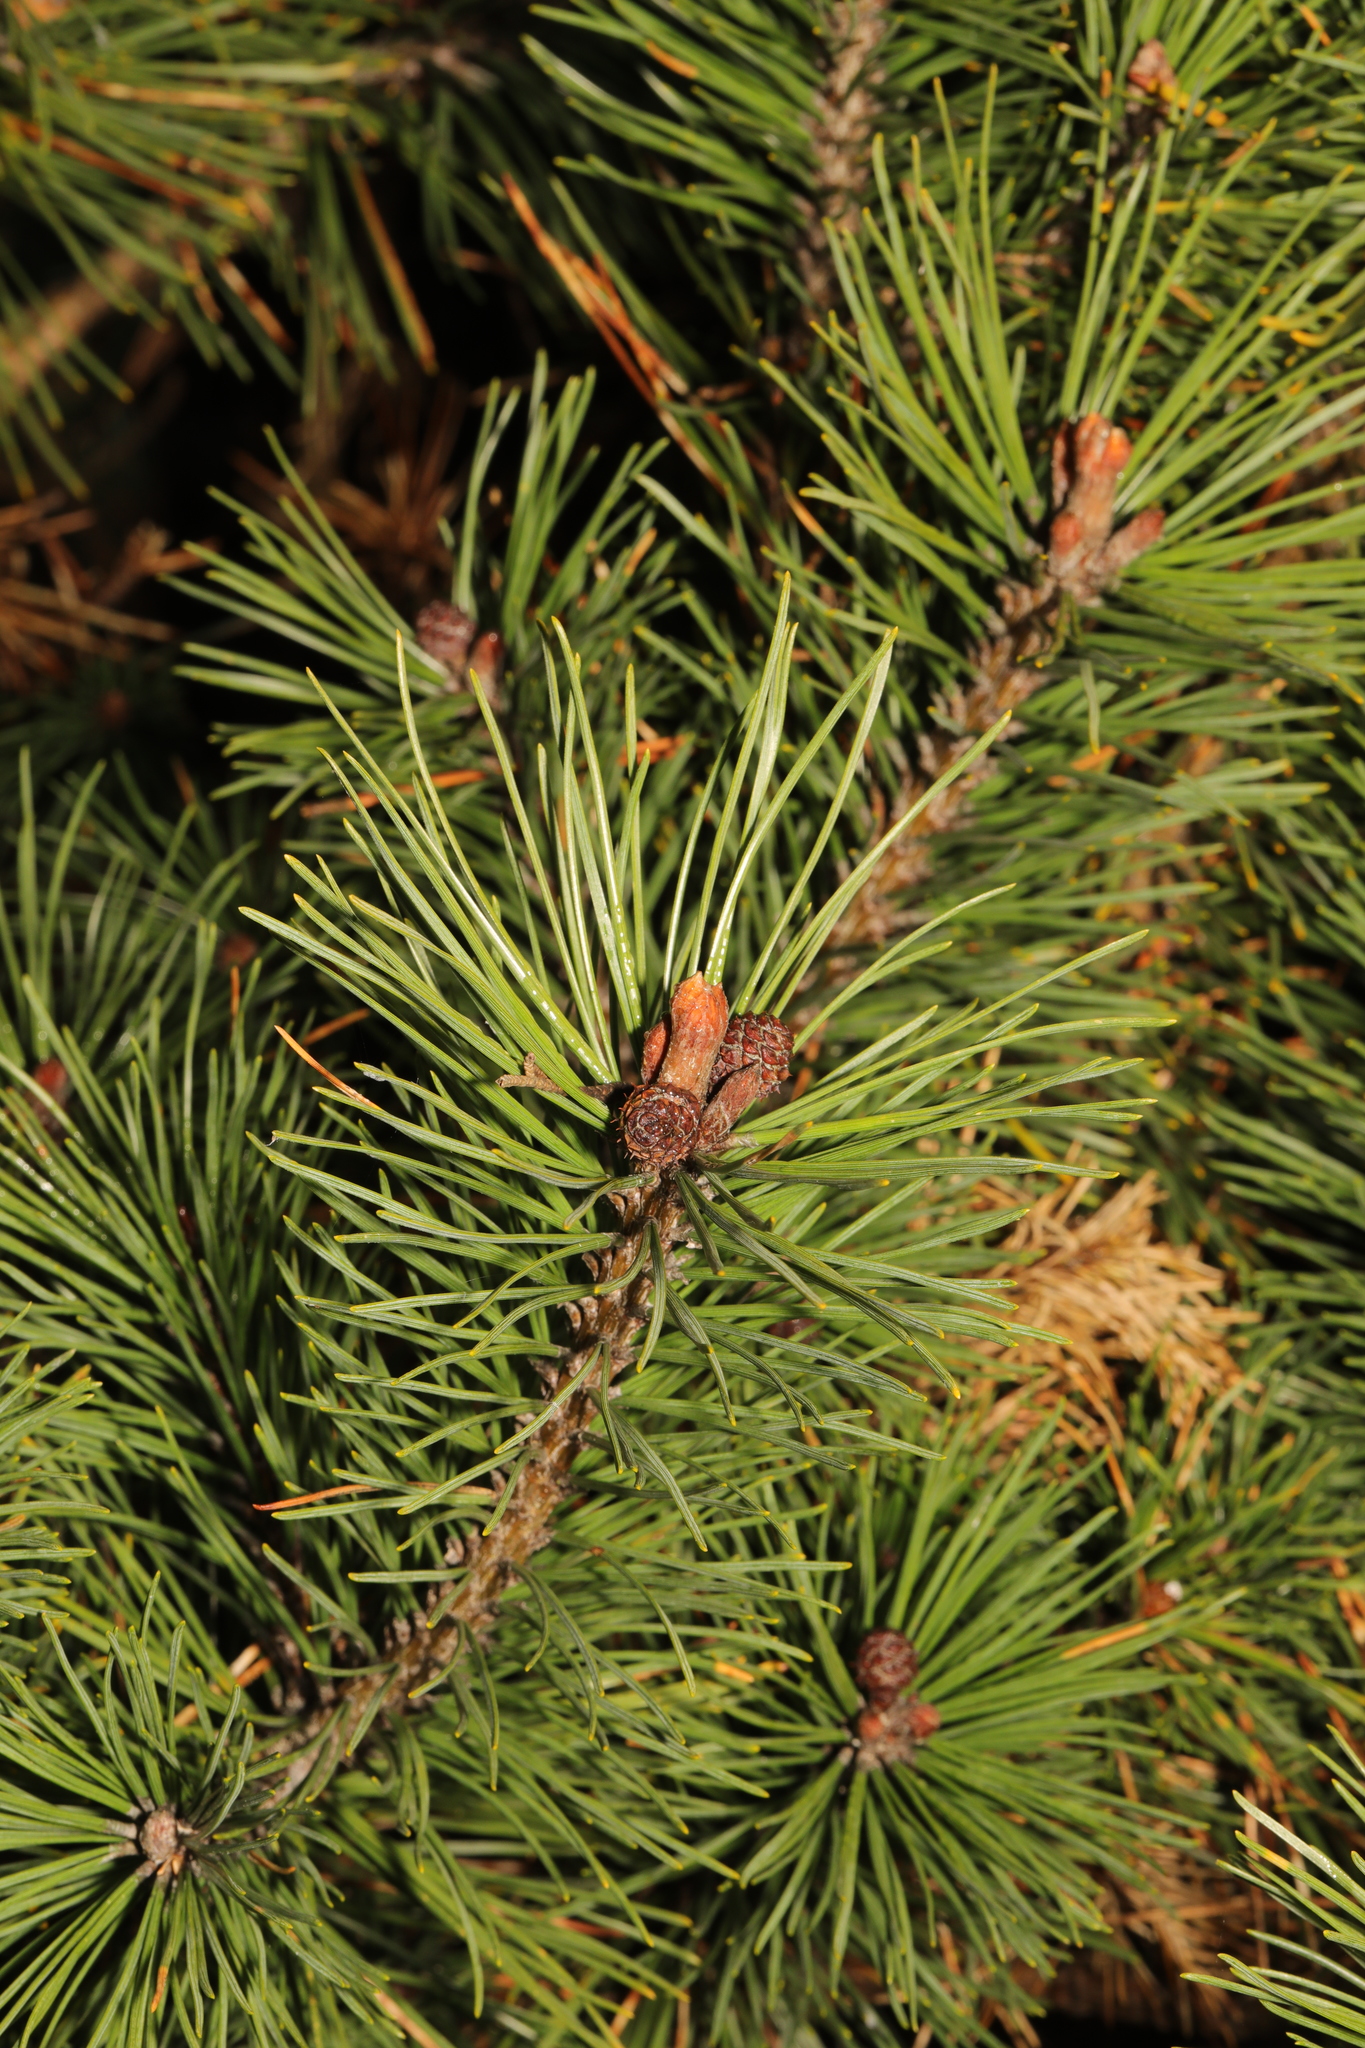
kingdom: Plantae
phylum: Tracheophyta
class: Pinopsida
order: Pinales
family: Pinaceae
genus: Pinus
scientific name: Pinus sylvestris
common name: Scots pine
